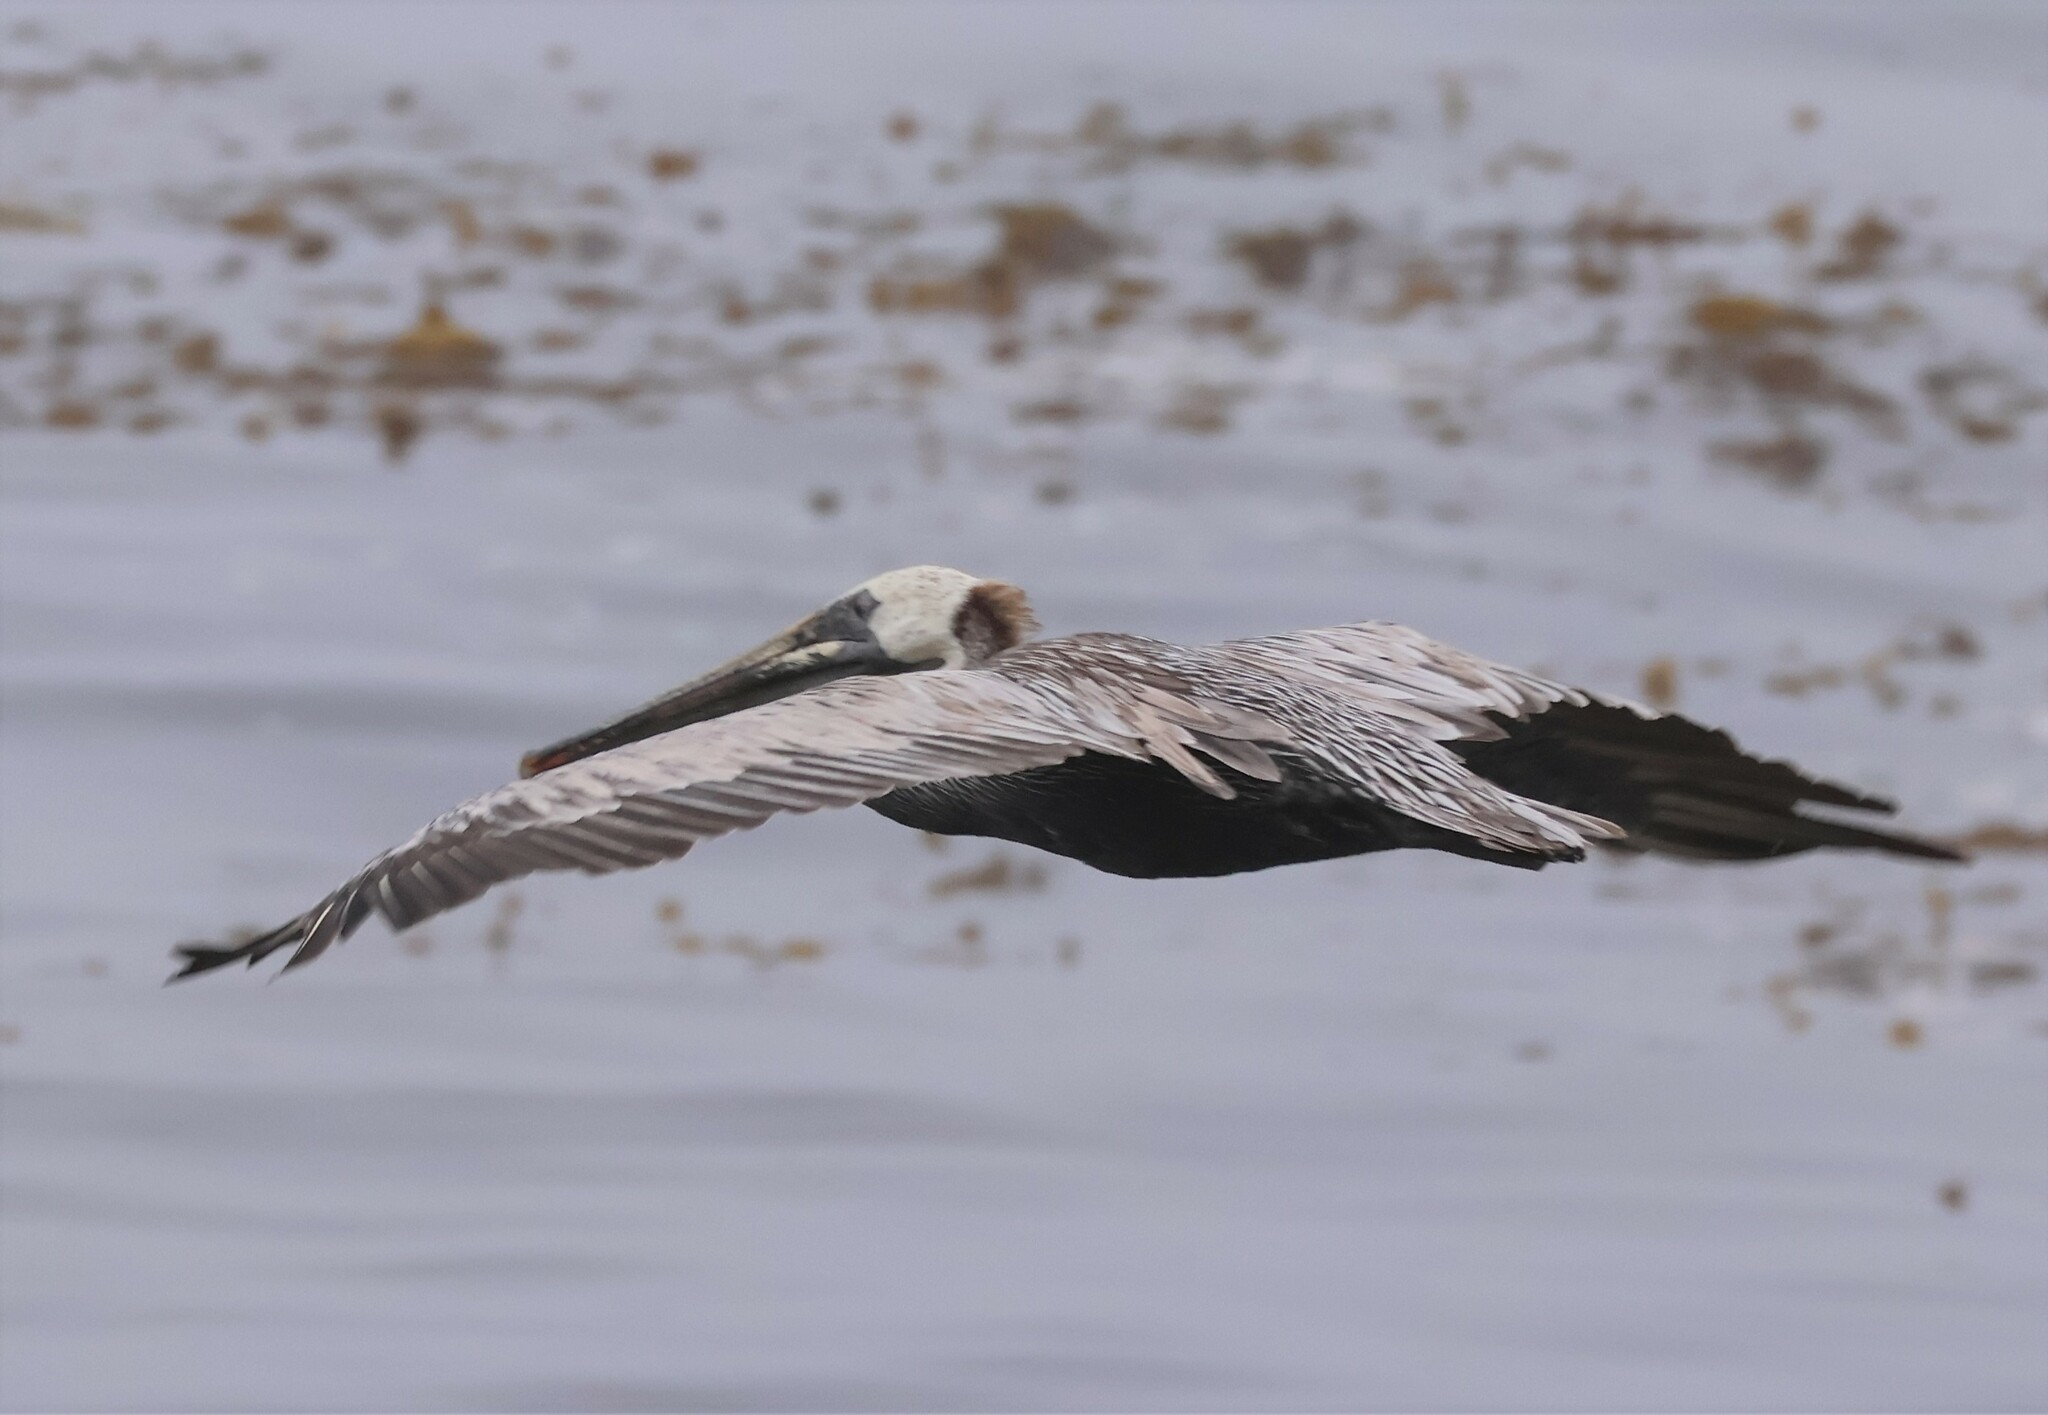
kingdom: Animalia
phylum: Chordata
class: Aves
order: Pelecaniformes
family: Pelecanidae
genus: Pelecanus
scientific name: Pelecanus occidentalis
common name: Brown pelican
